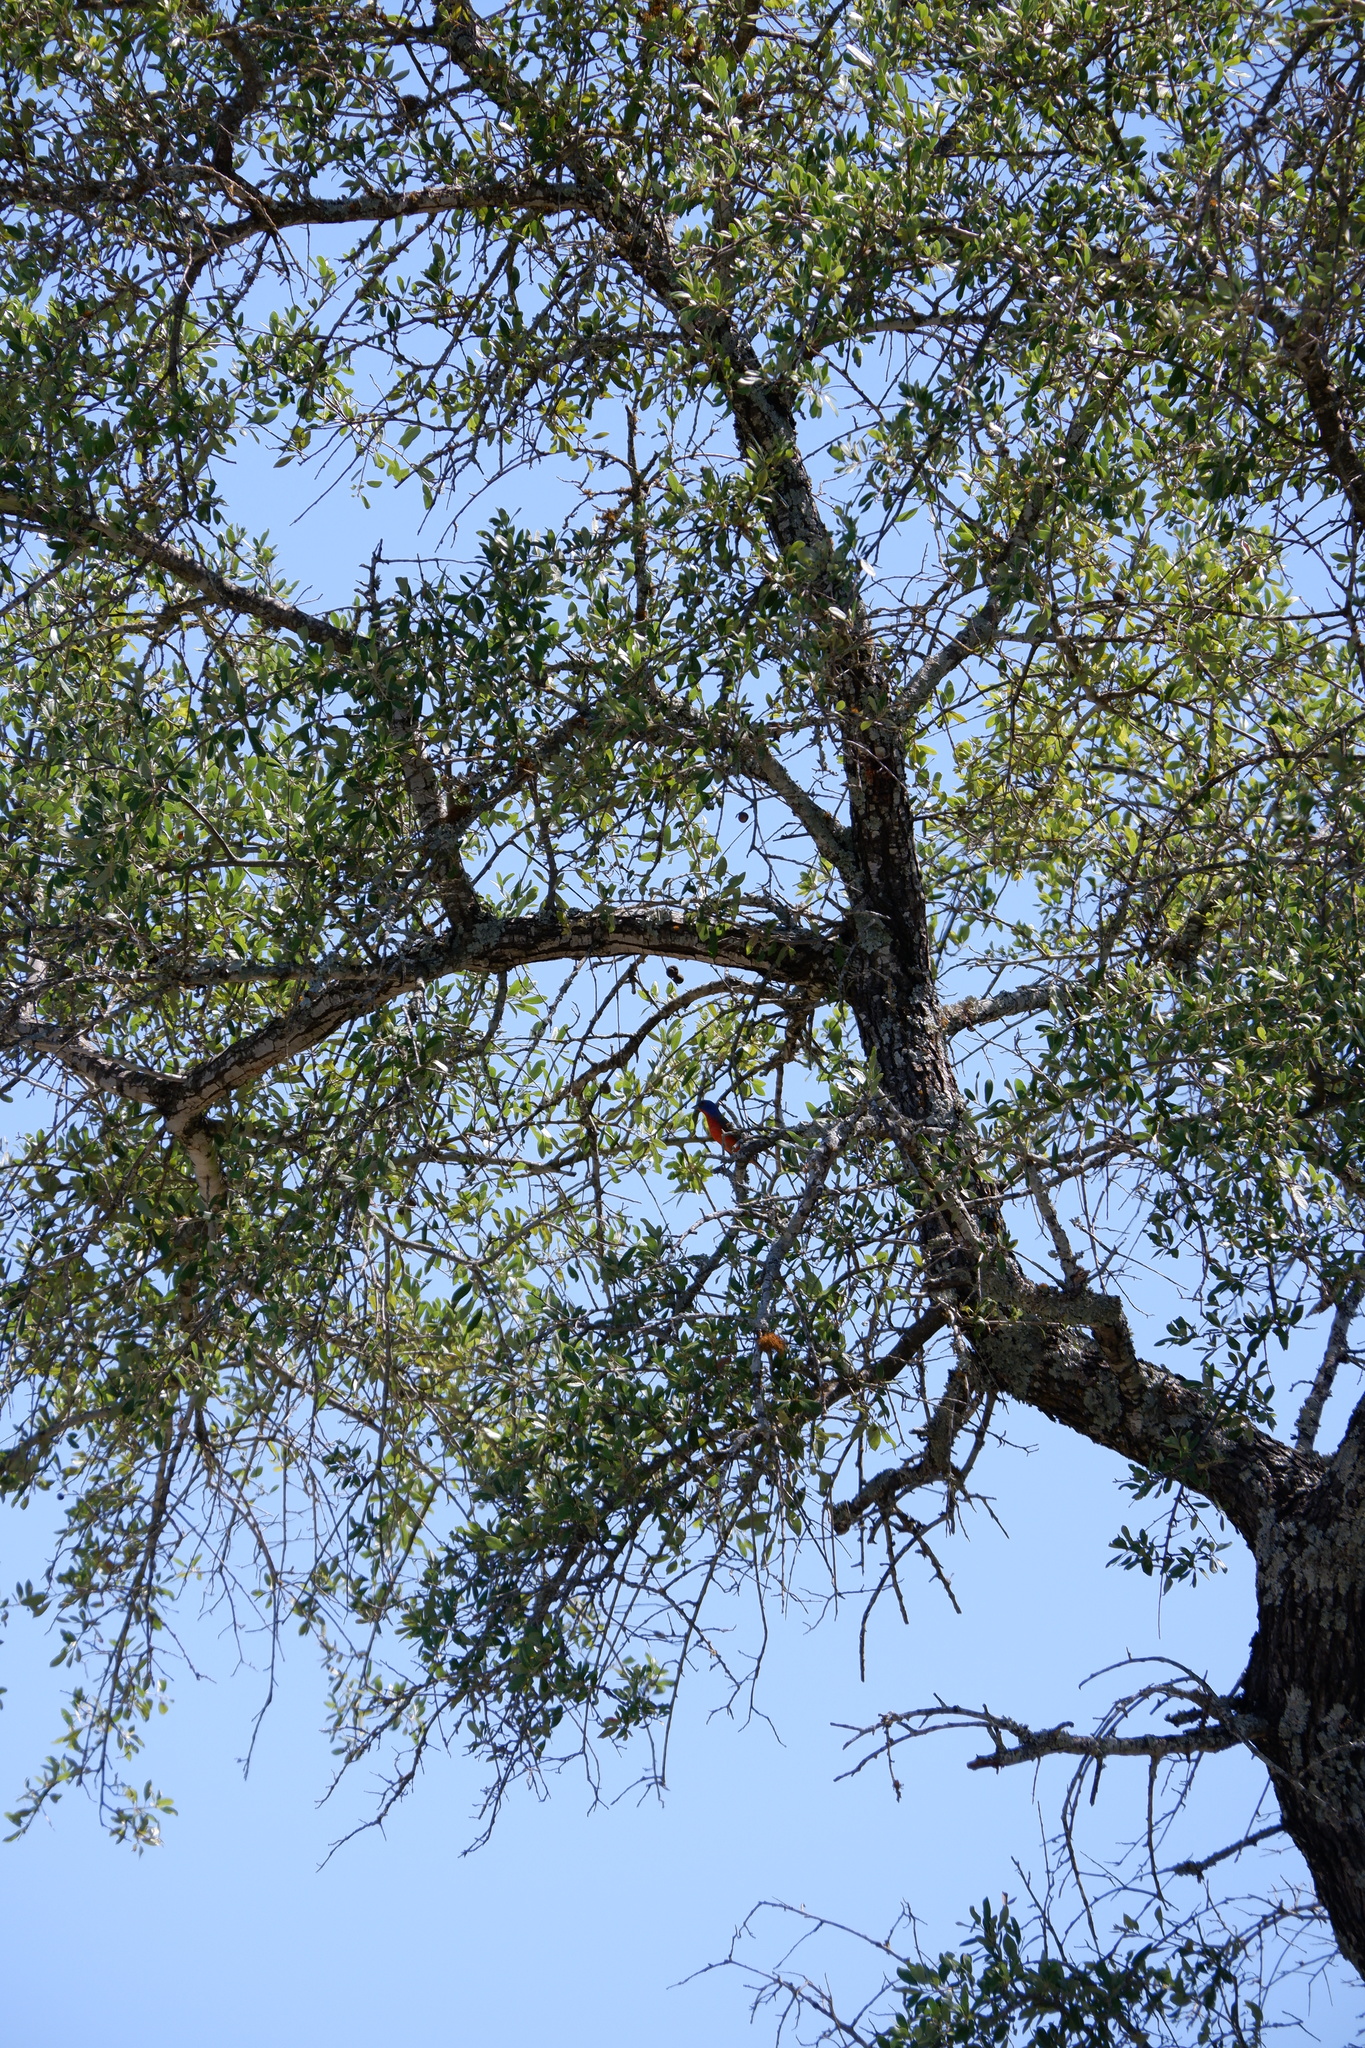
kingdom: Animalia
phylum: Chordata
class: Aves
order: Passeriformes
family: Cardinalidae
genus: Passerina
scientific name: Passerina ciris
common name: Painted bunting
